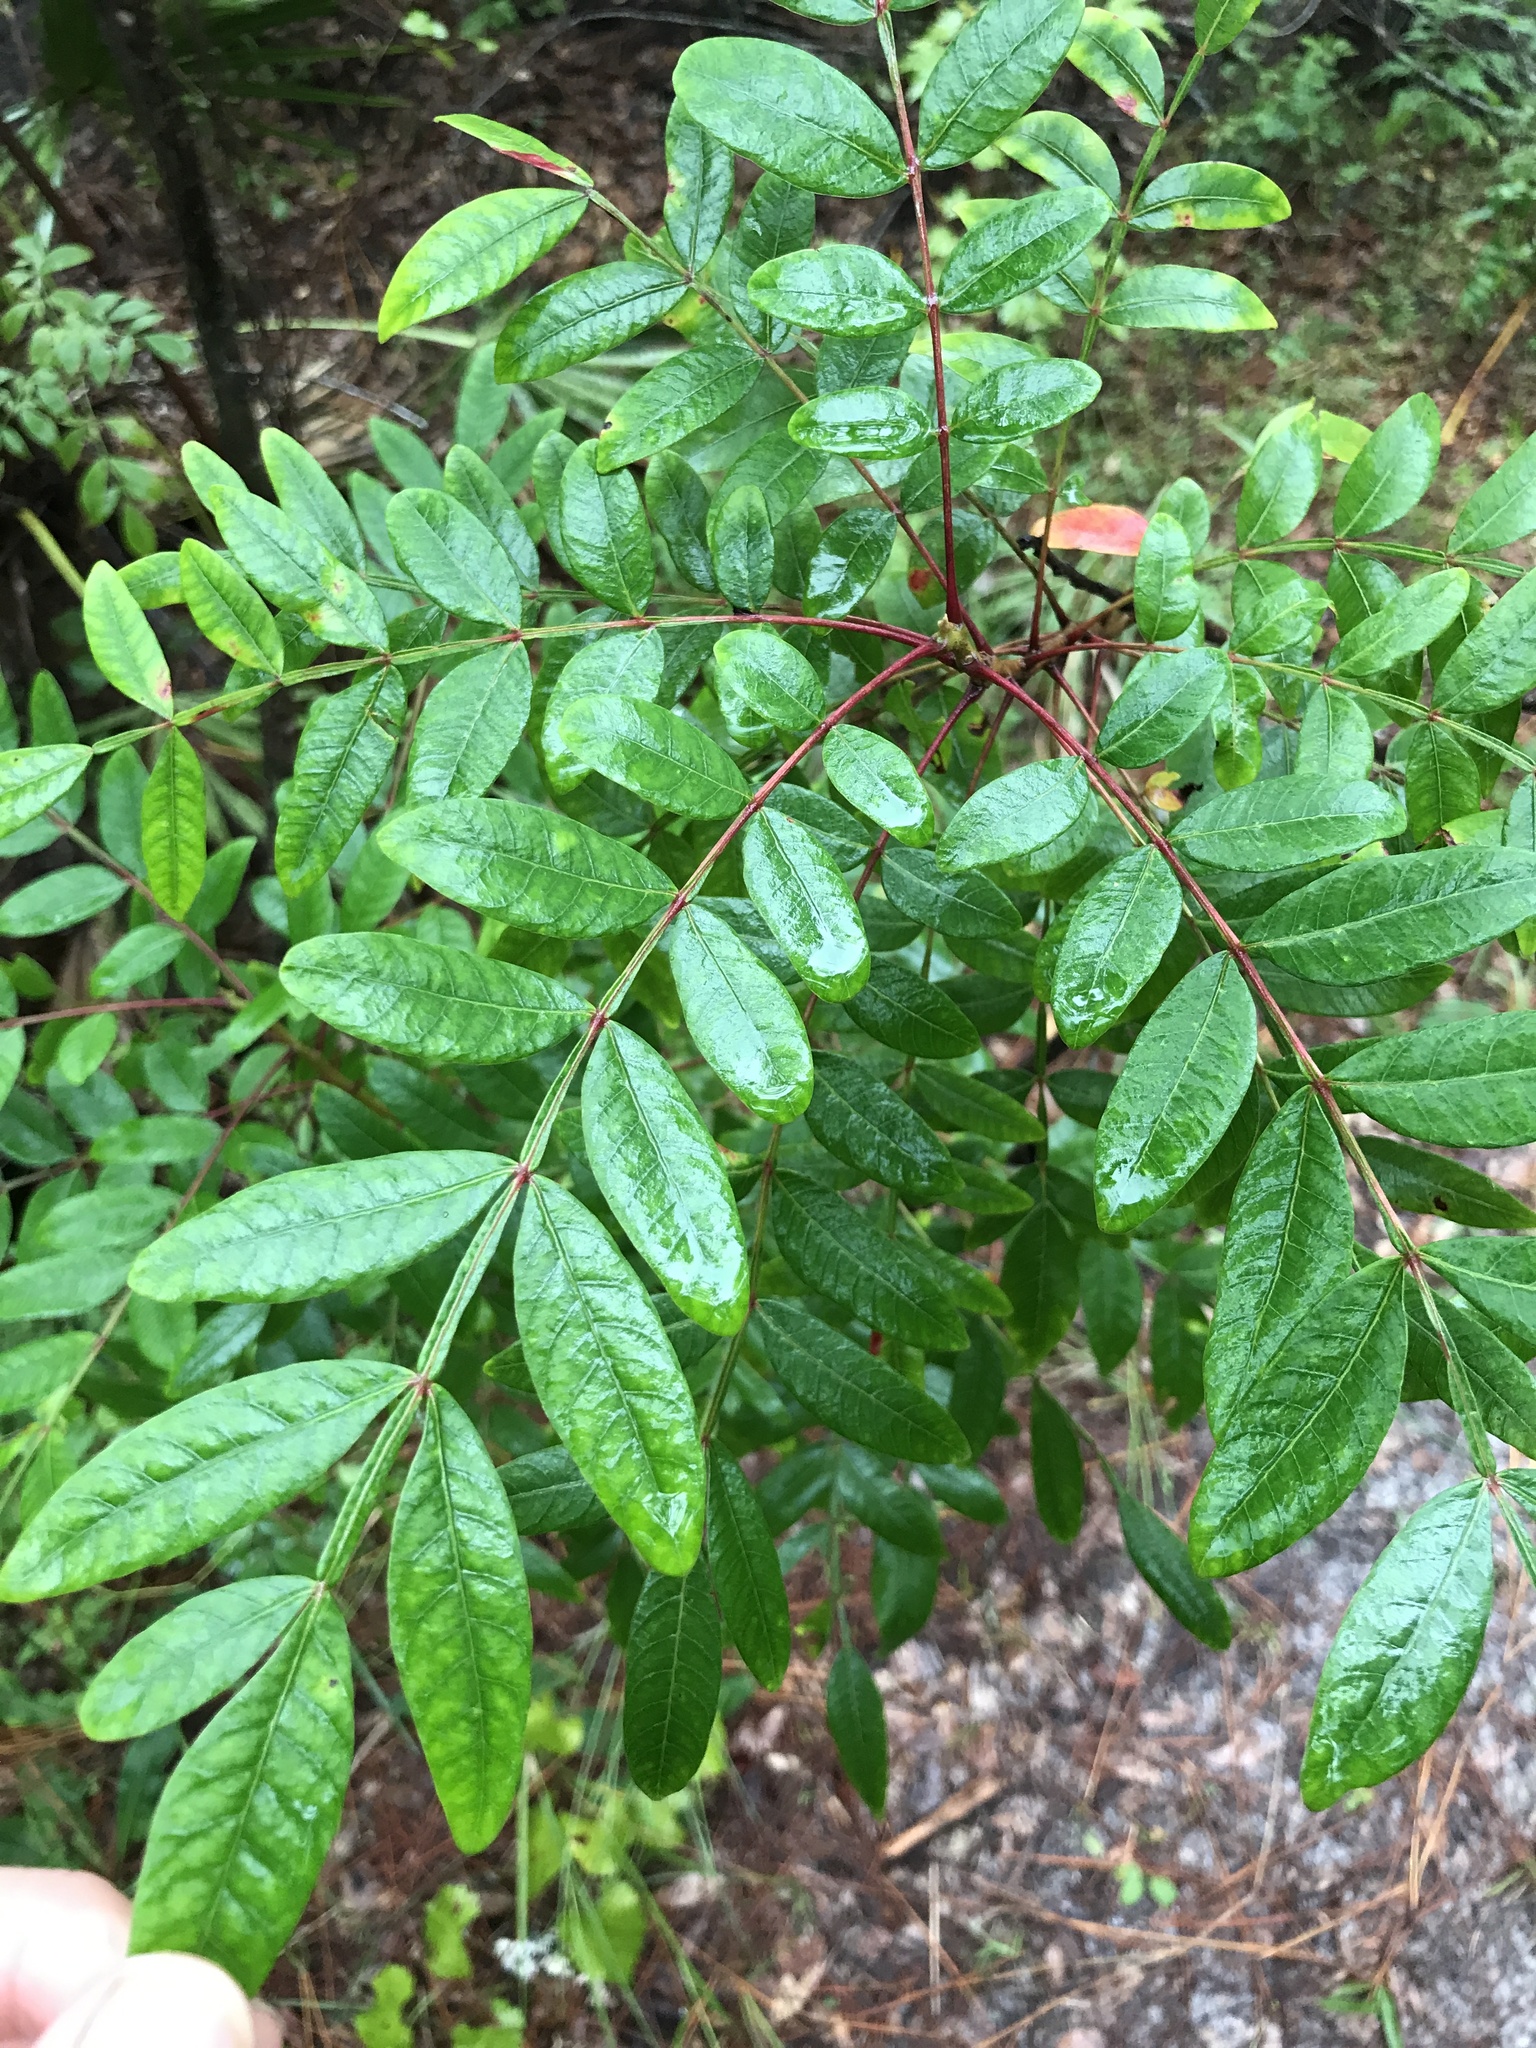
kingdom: Plantae
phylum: Tracheophyta
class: Magnoliopsida
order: Sapindales
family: Anacardiaceae
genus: Rhus
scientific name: Rhus copallina
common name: Shining sumac
